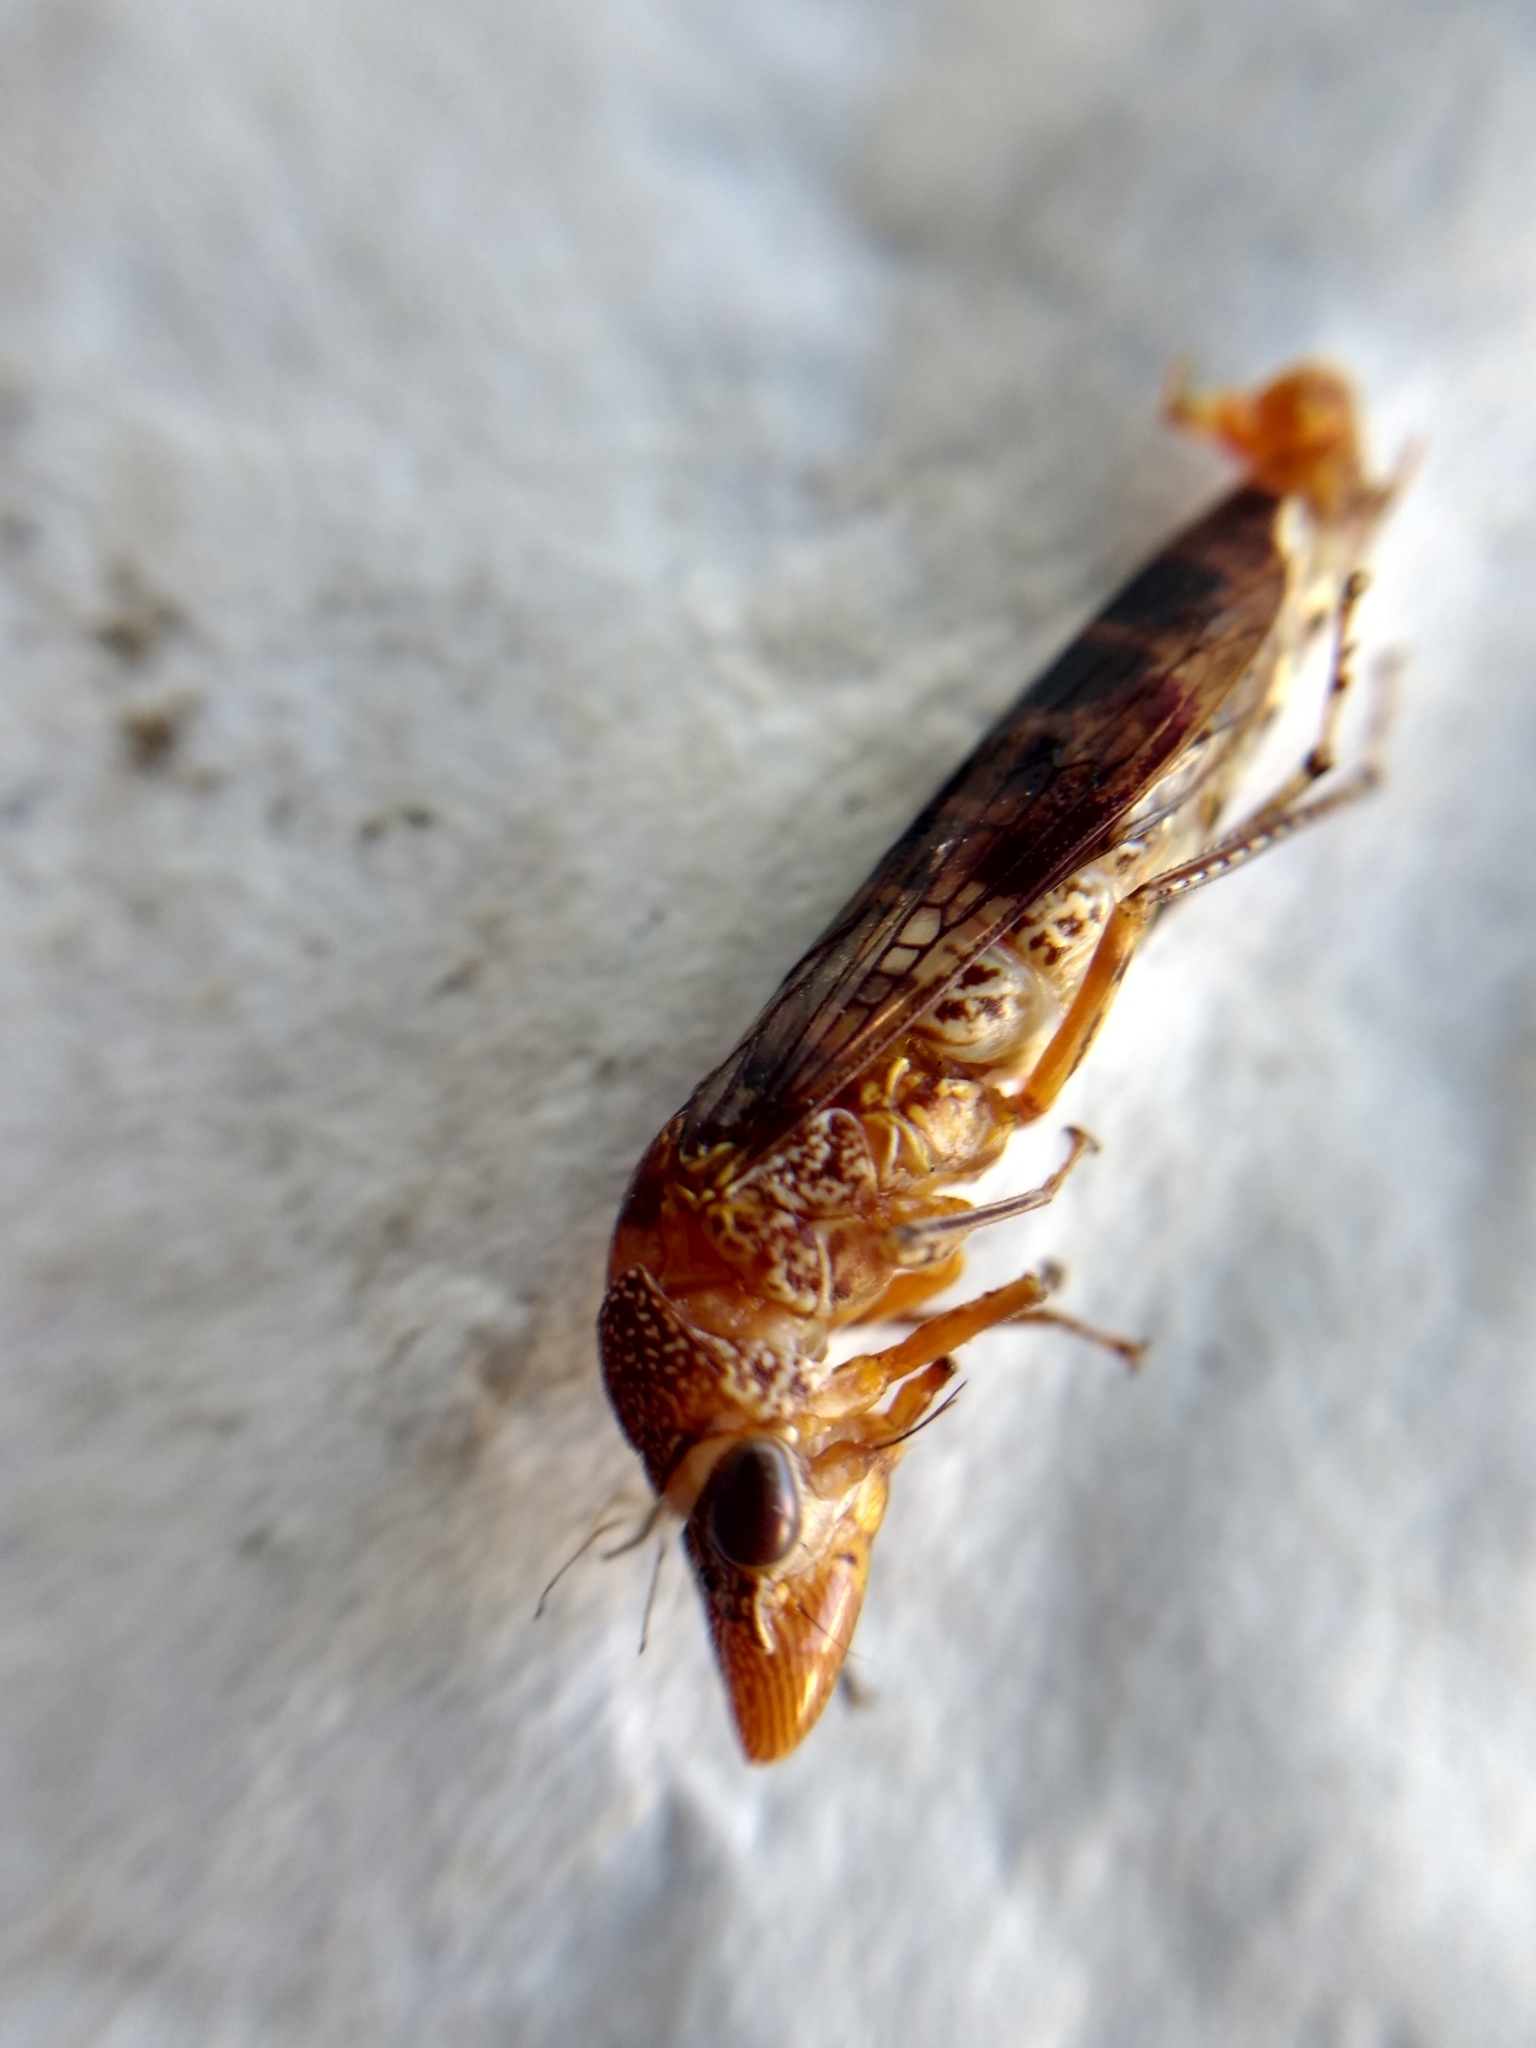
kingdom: Animalia
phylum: Arthropoda
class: Insecta
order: Hemiptera
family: Cicadellidae
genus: Homalodisca
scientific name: Homalodisca vitripennis
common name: Glassy-winged sharpshooter
